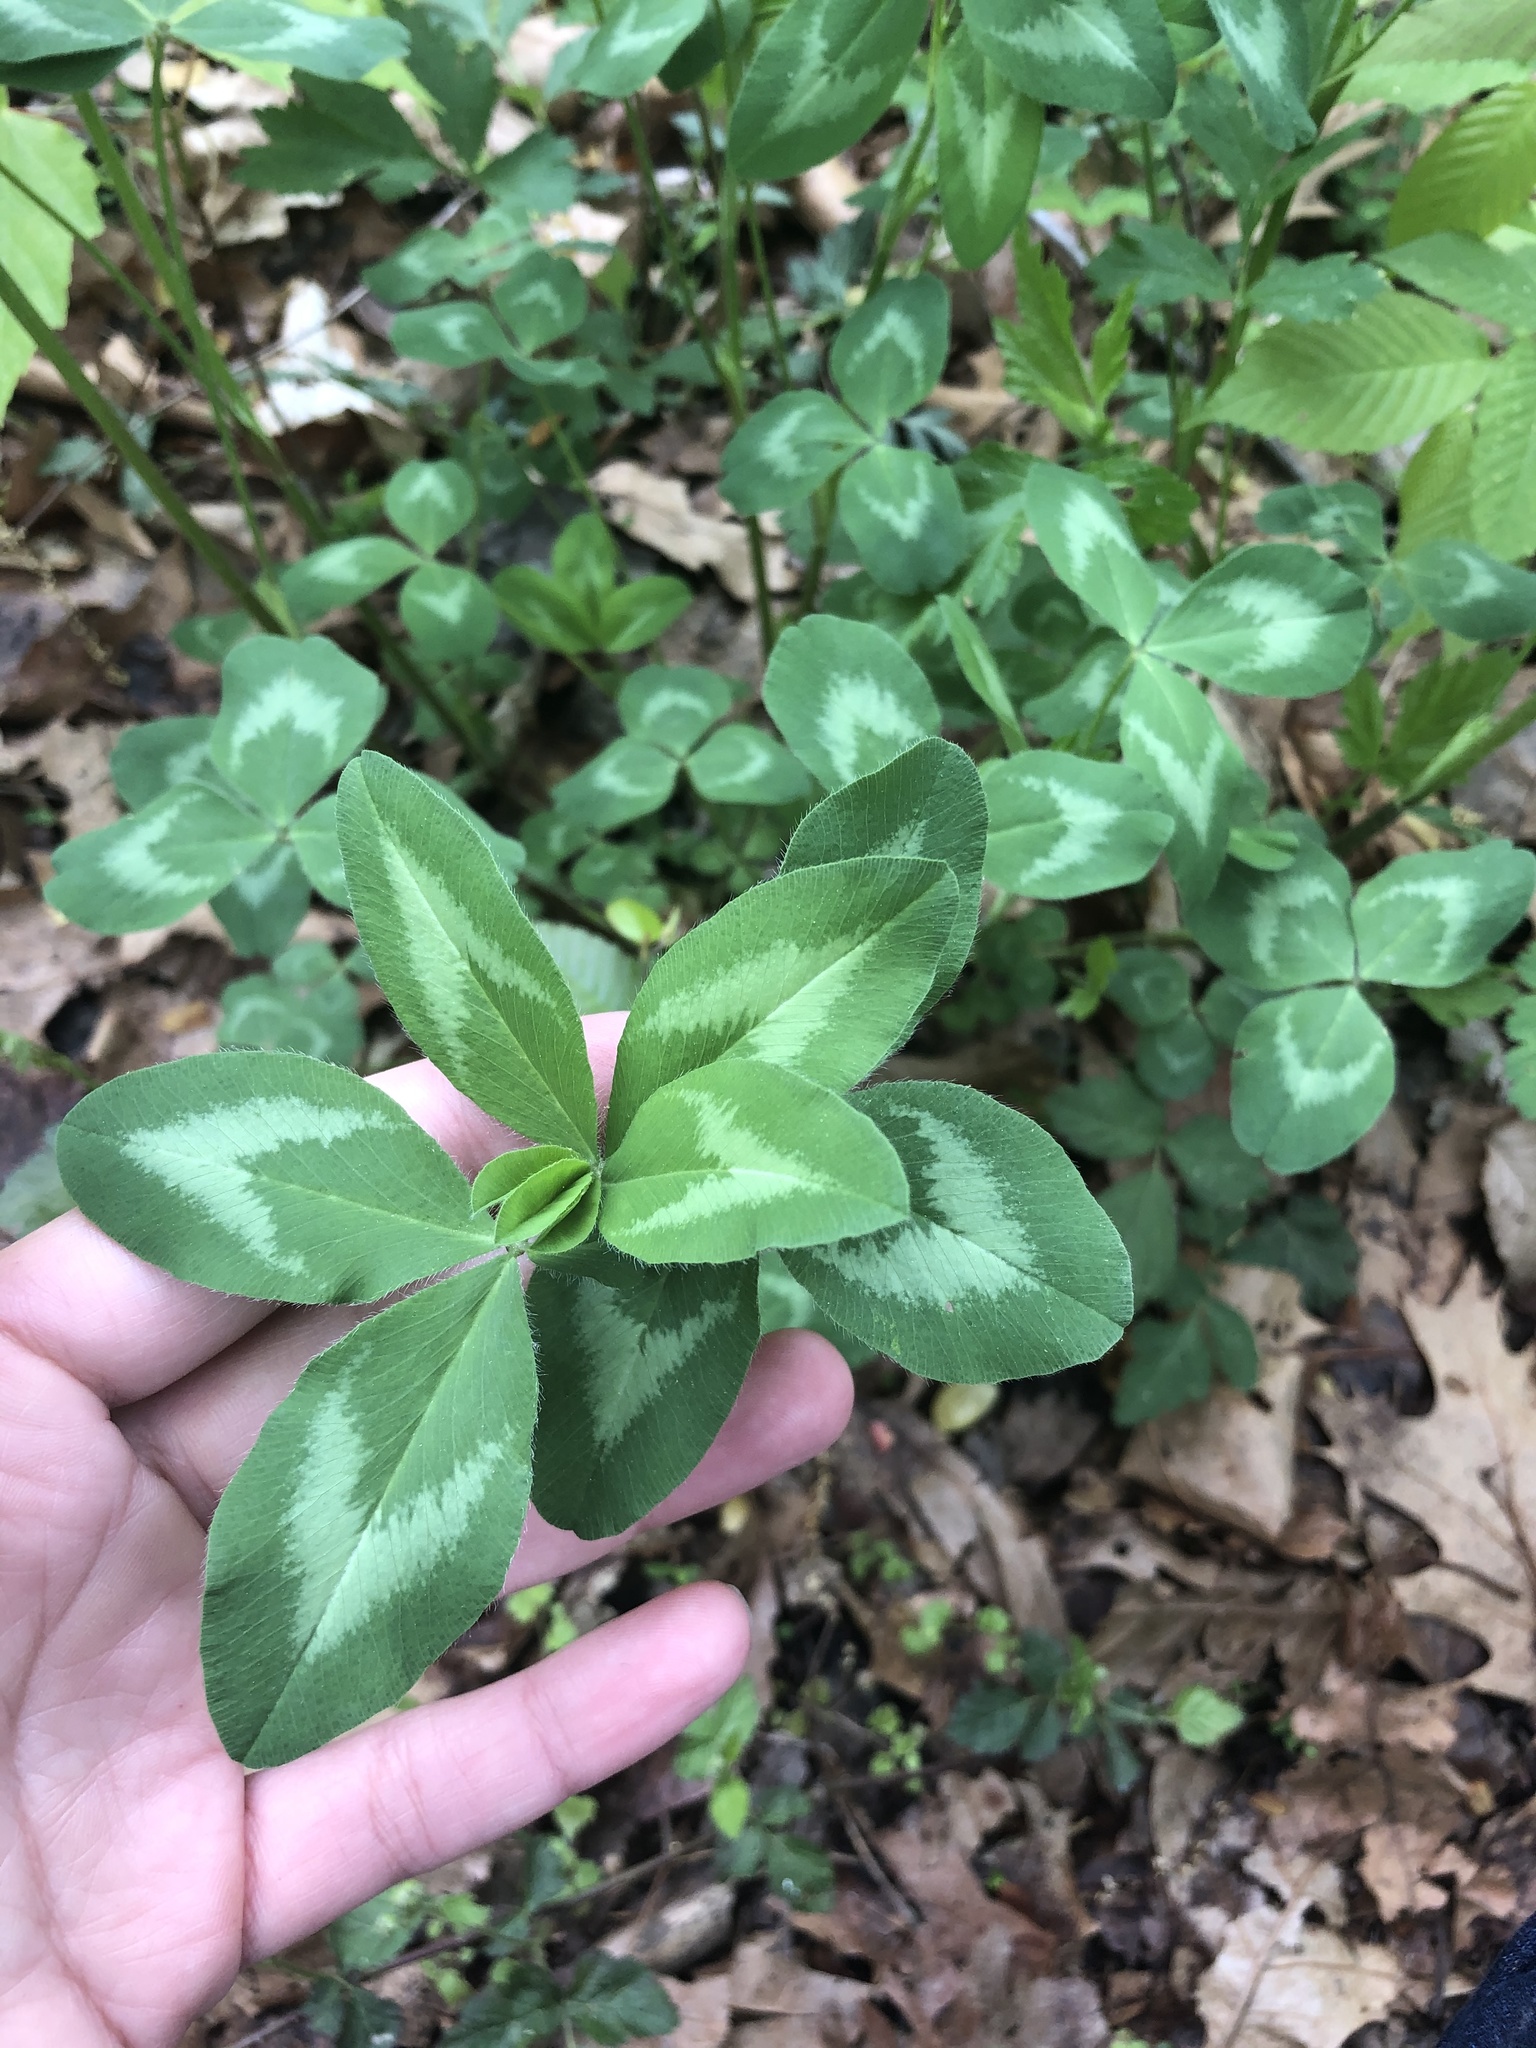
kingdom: Plantae
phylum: Tracheophyta
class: Magnoliopsida
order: Fabales
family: Fabaceae
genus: Trifolium
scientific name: Trifolium pratense
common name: Red clover
